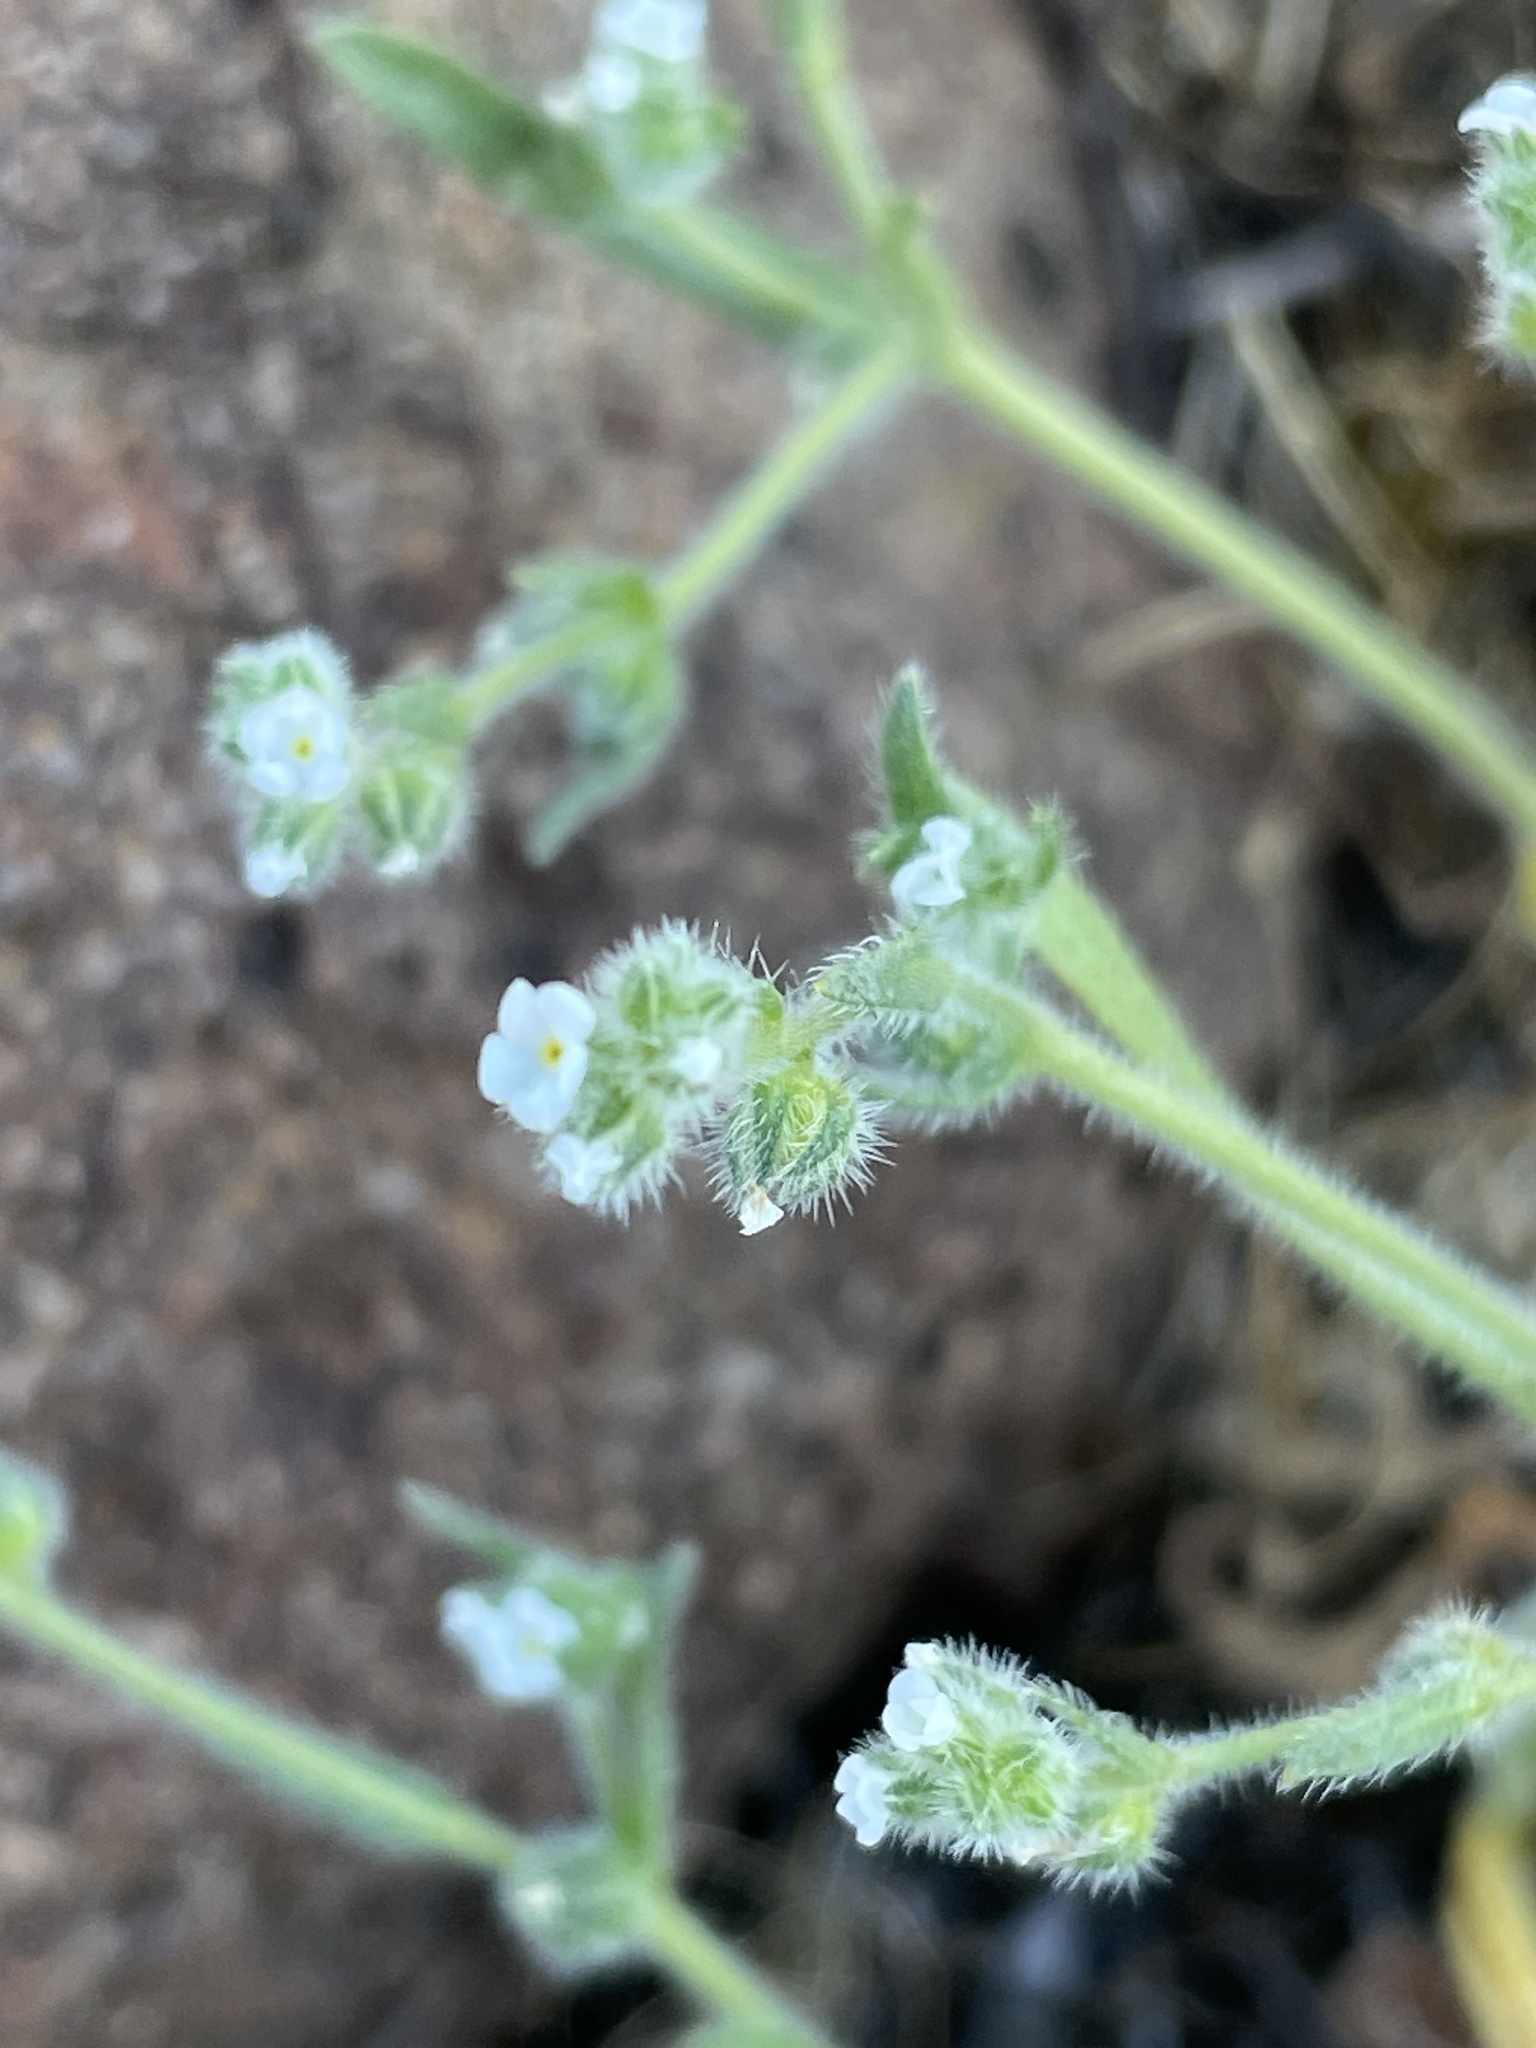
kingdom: Plantae
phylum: Tracheophyta
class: Magnoliopsida
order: Boraginales
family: Boraginaceae
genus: Plagiobothrys
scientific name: Plagiobothrys collinus
